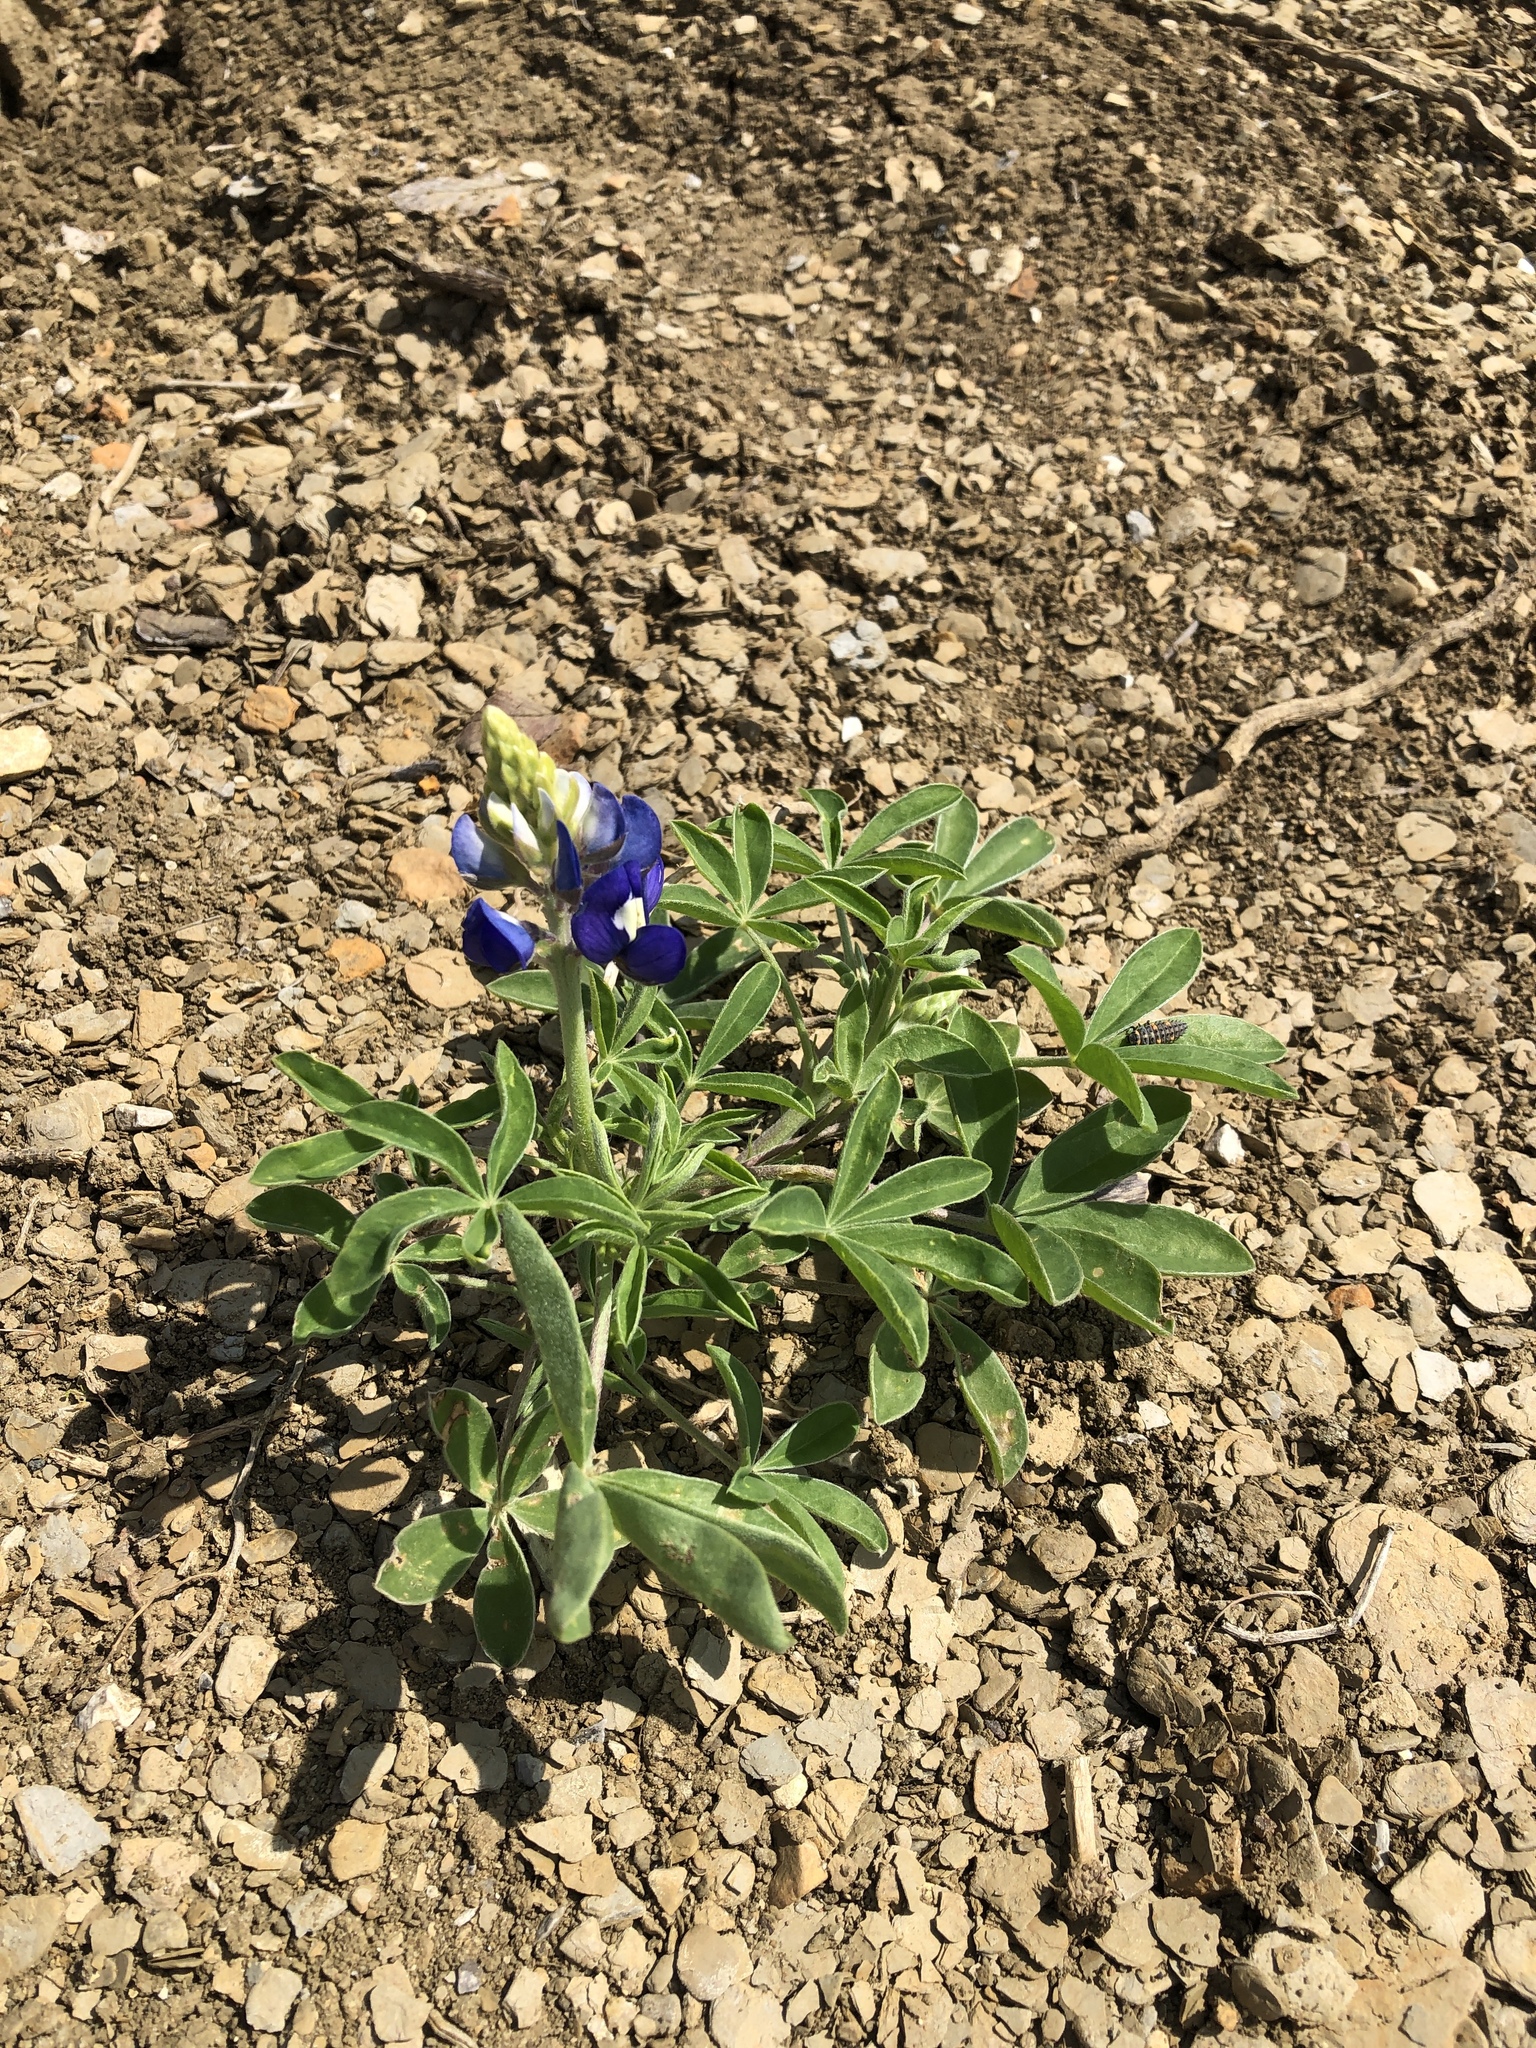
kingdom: Plantae
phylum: Tracheophyta
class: Magnoliopsida
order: Fabales
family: Fabaceae
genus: Lupinus
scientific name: Lupinus texensis
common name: Texas bluebonnet
